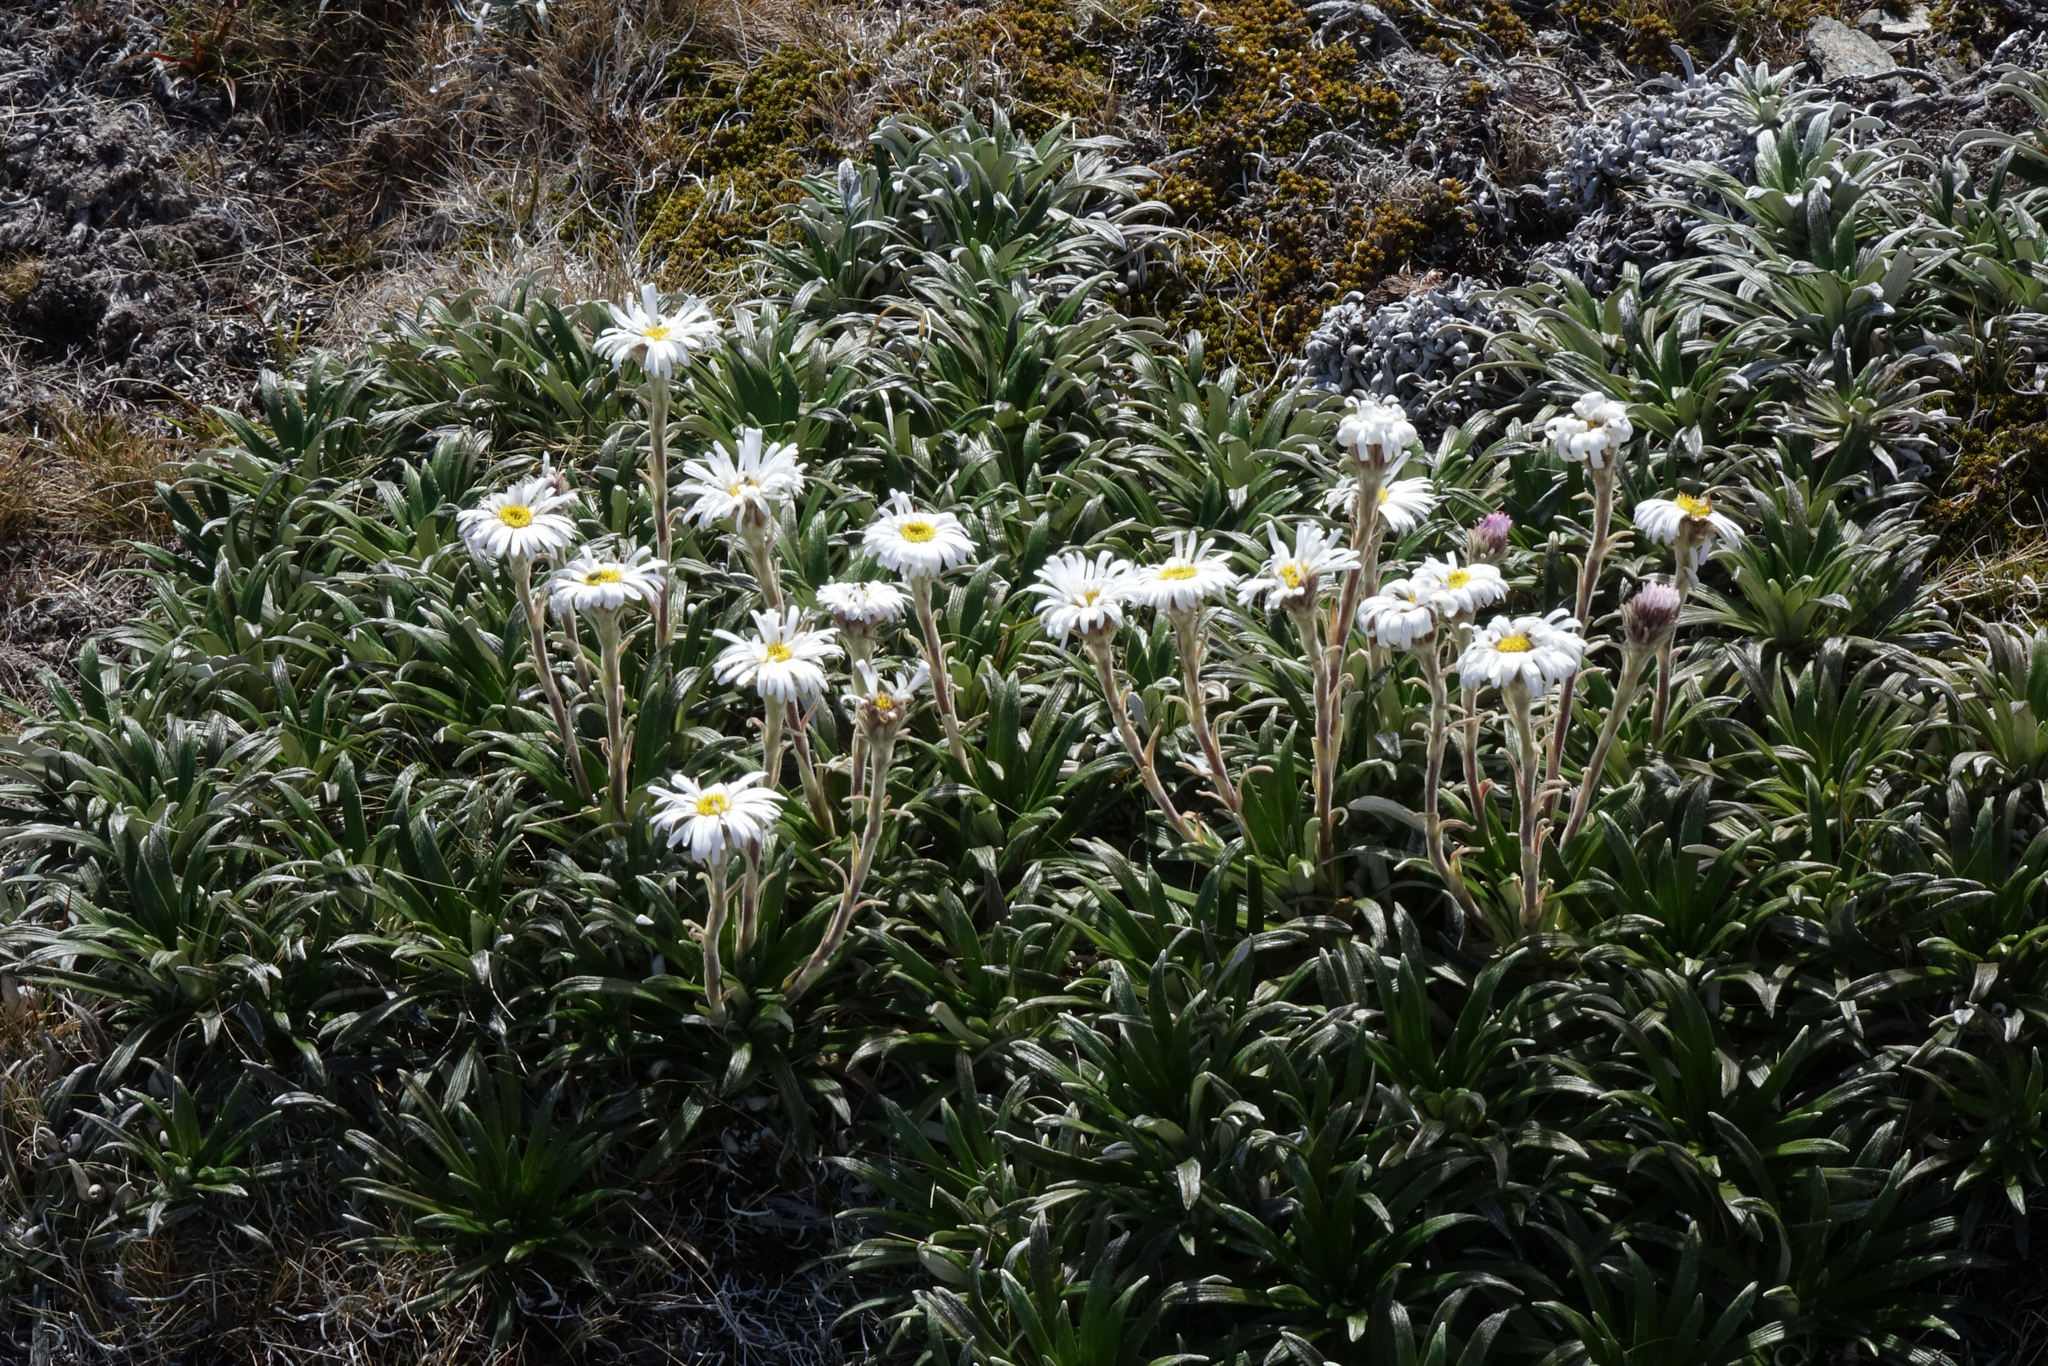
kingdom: Plantae
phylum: Tracheophyta
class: Magnoliopsida
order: Asterales
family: Asteraceae
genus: Celmisia
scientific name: Celmisia viscosa
